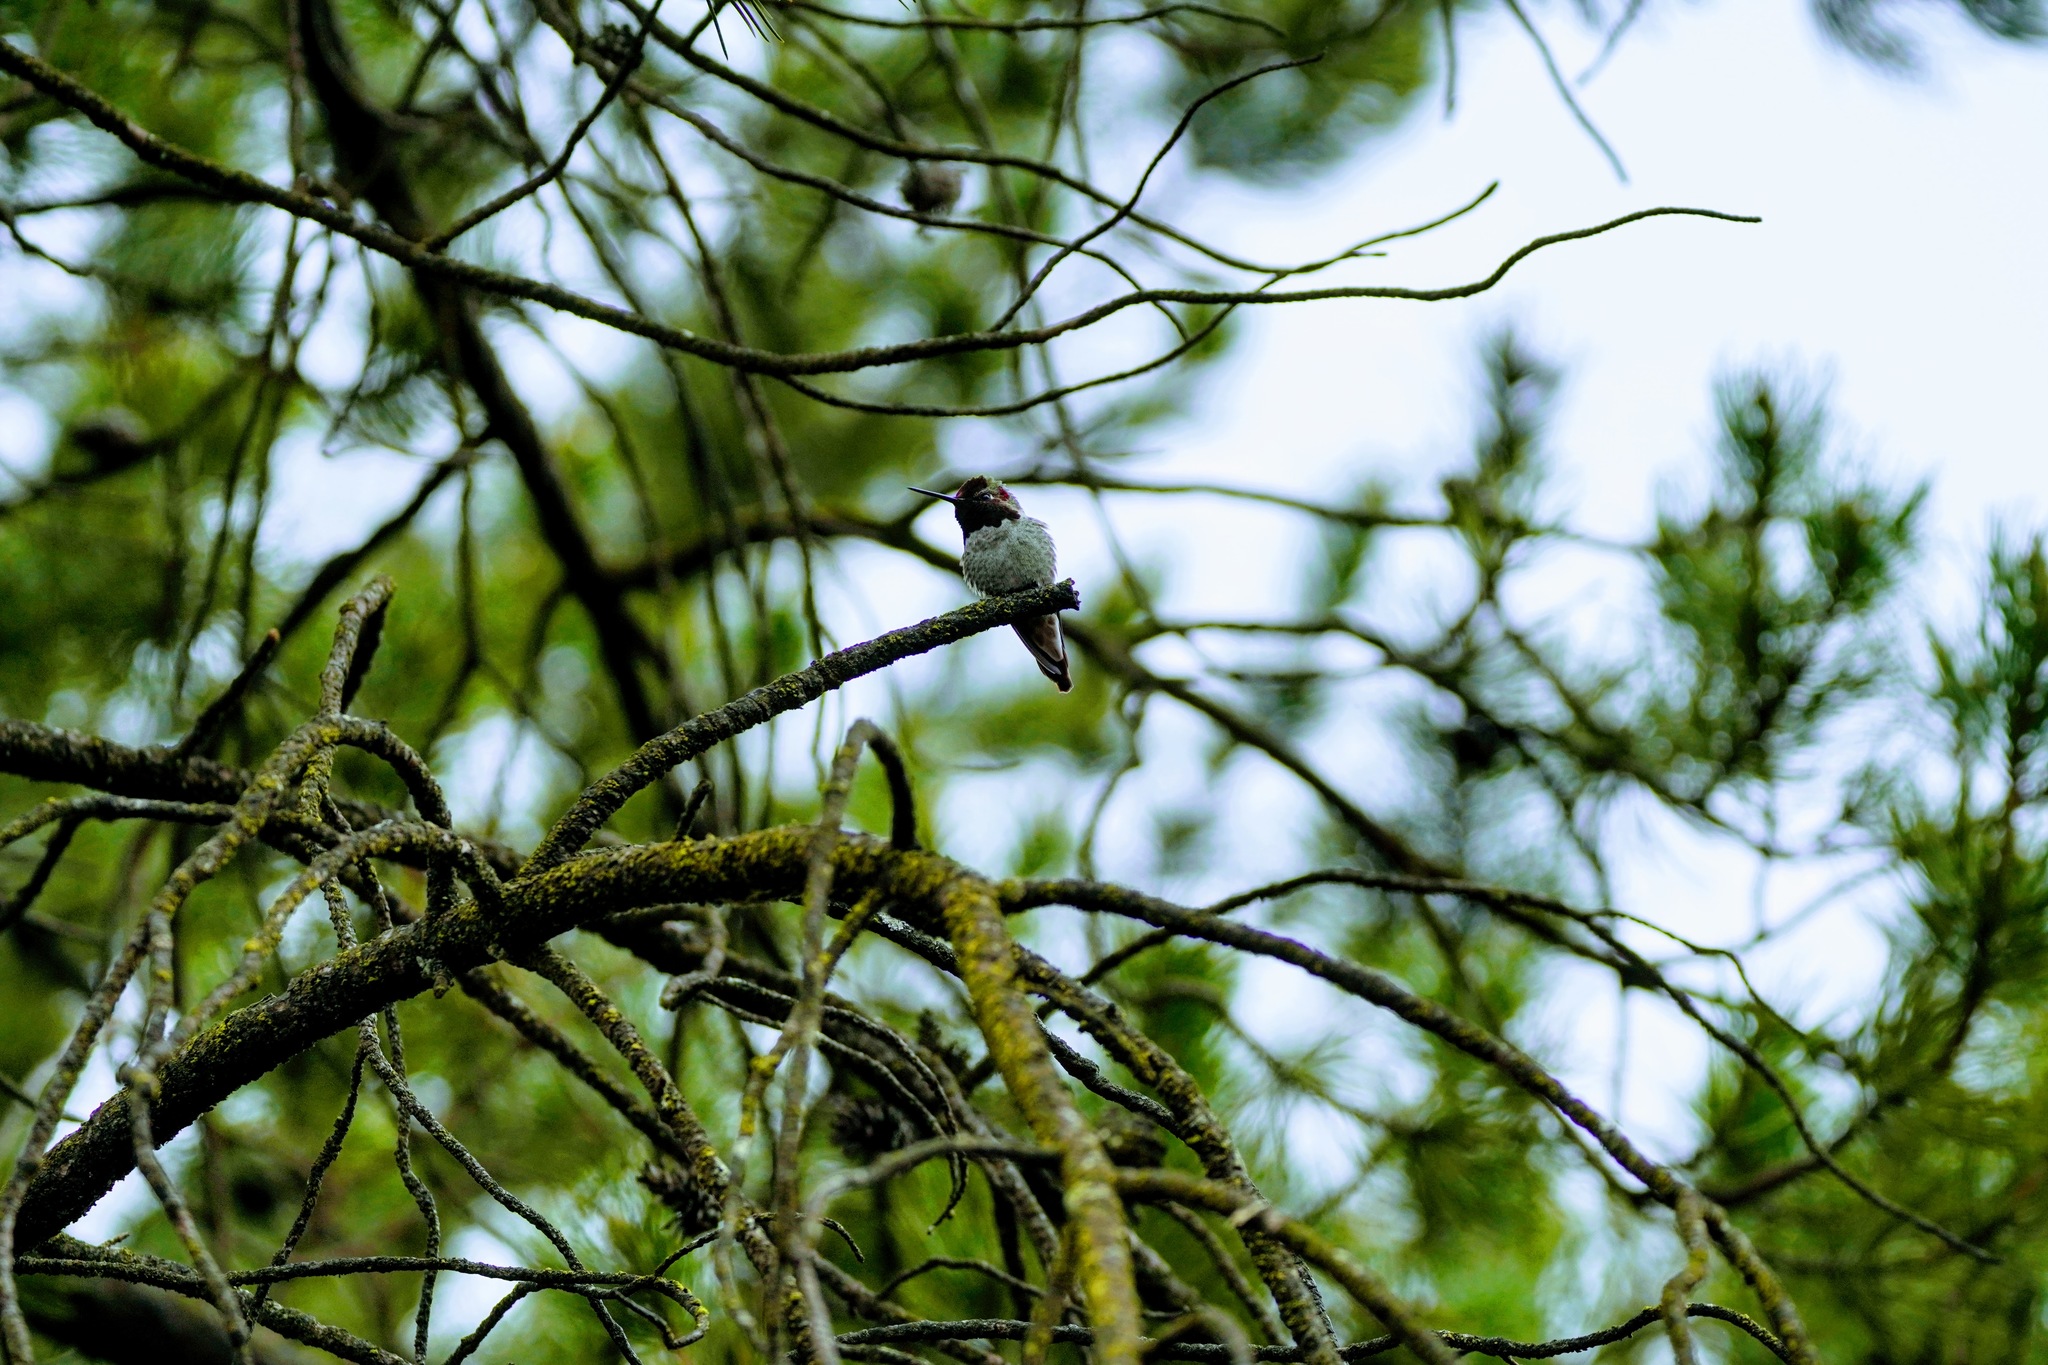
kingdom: Animalia
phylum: Chordata
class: Aves
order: Apodiformes
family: Trochilidae
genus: Calypte
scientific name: Calypte anna
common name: Anna's hummingbird
